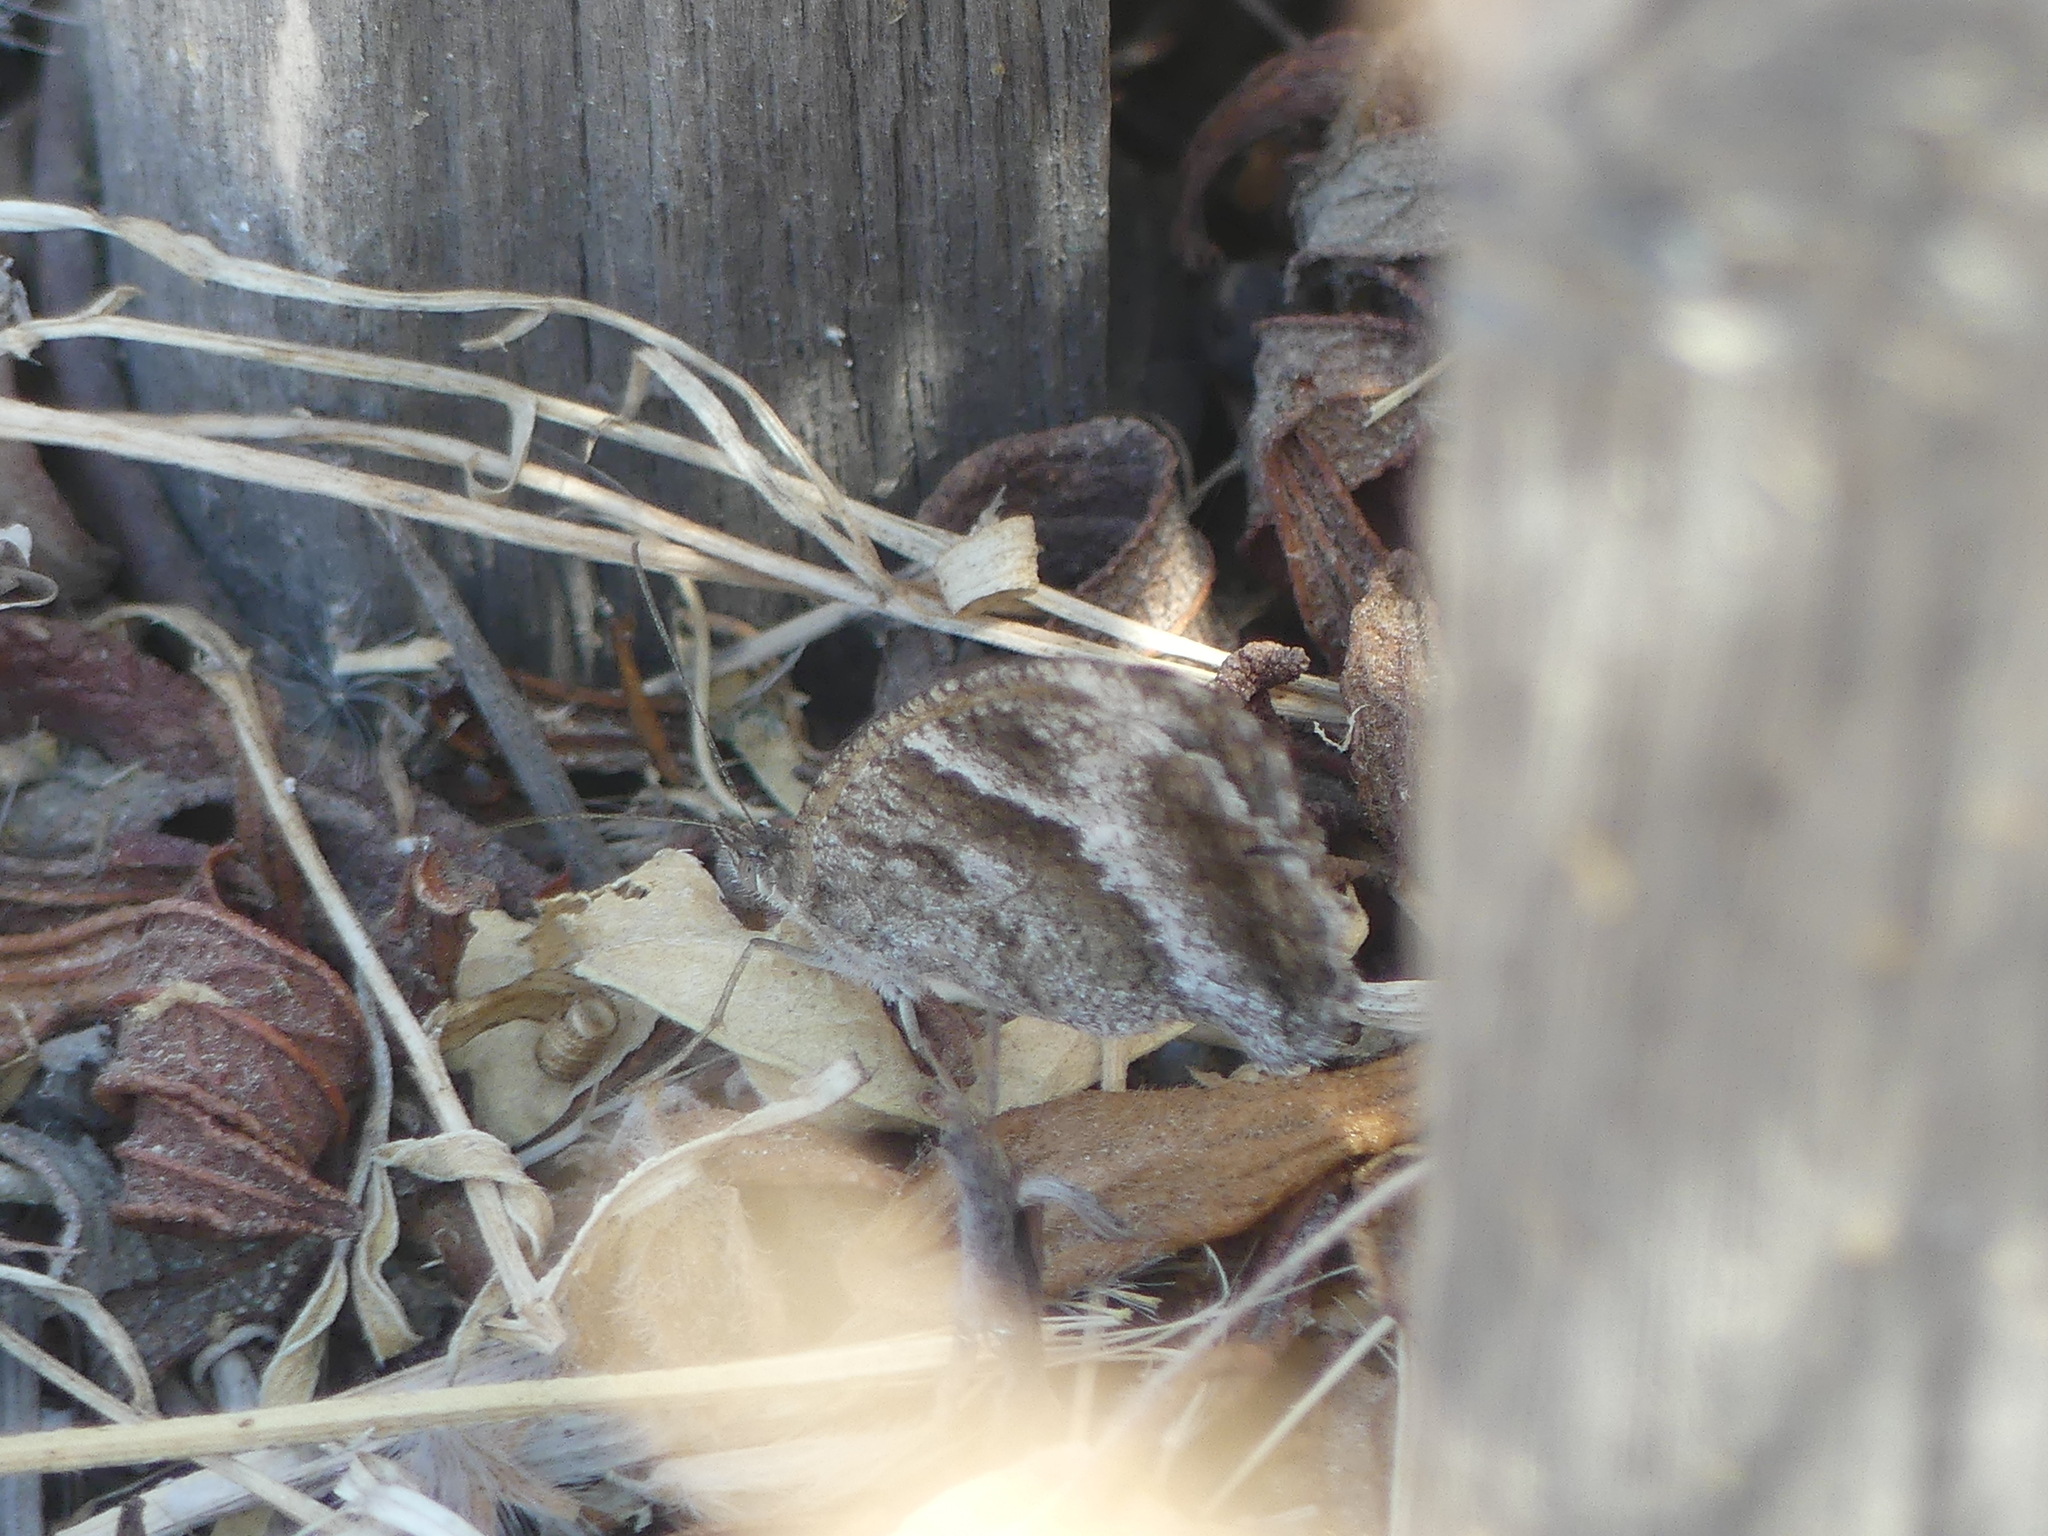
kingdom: Animalia
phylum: Arthropoda
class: Insecta
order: Lepidoptera
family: Nymphalidae
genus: Pyronia
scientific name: Pyronia cecilia
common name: Southern gatekeeper
